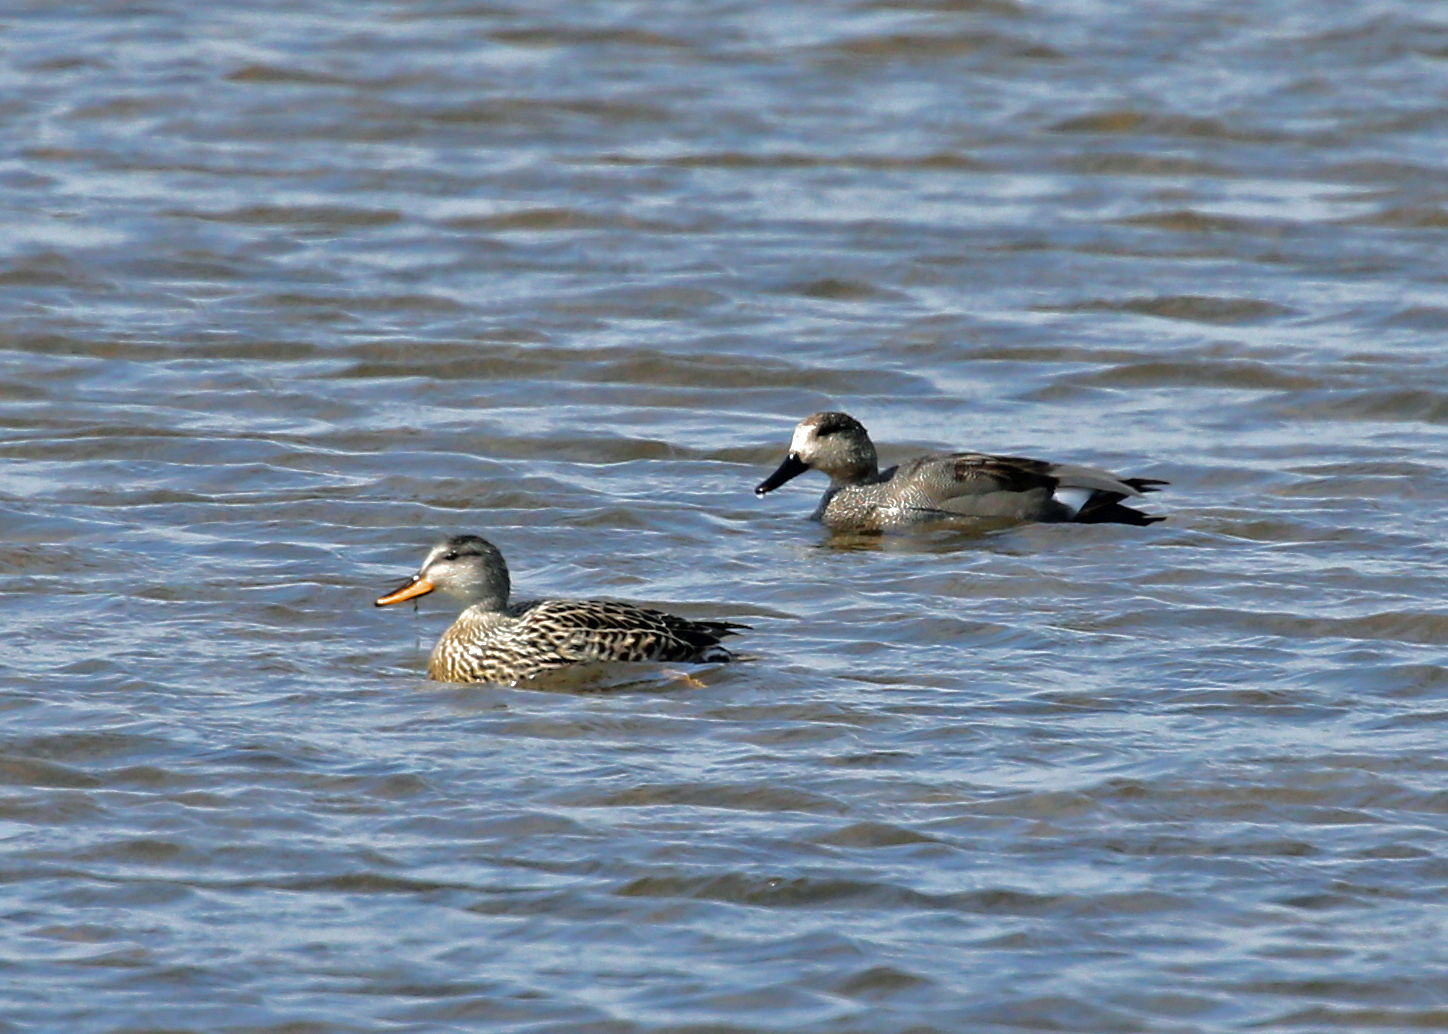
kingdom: Animalia
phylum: Chordata
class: Aves
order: Anseriformes
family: Anatidae
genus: Mareca
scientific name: Mareca strepera
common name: Gadwall
